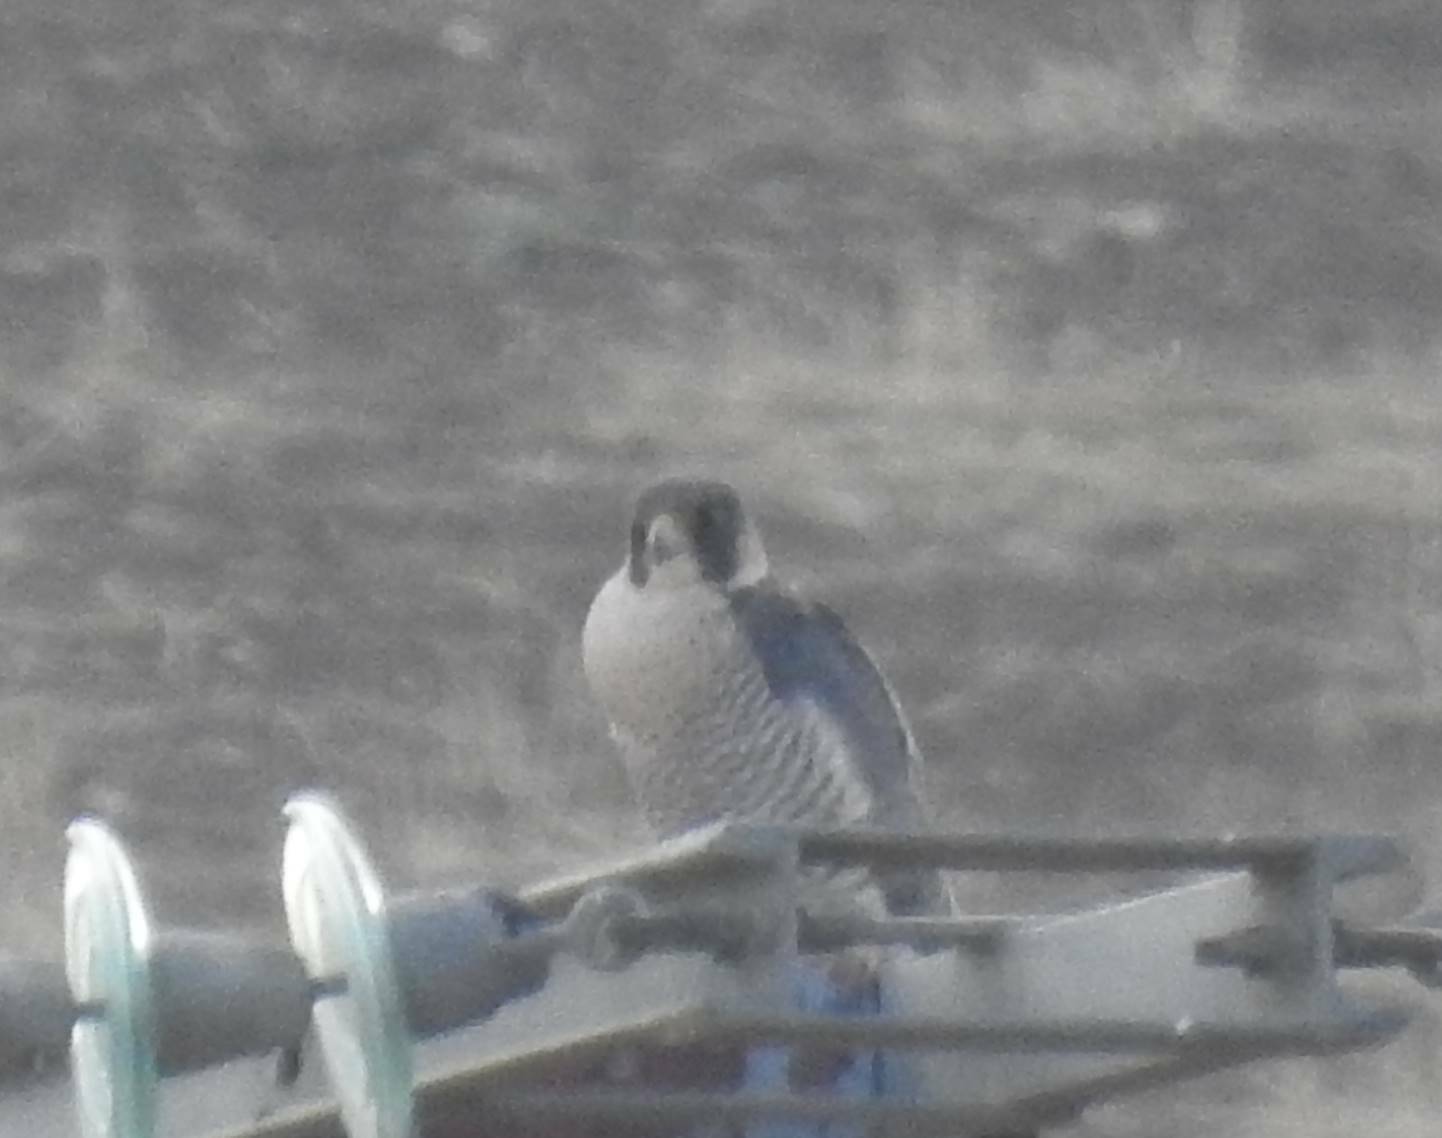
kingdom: Animalia
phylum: Chordata
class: Aves
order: Falconiformes
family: Falconidae
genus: Falco
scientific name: Falco peregrinus
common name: Peregrine falcon
